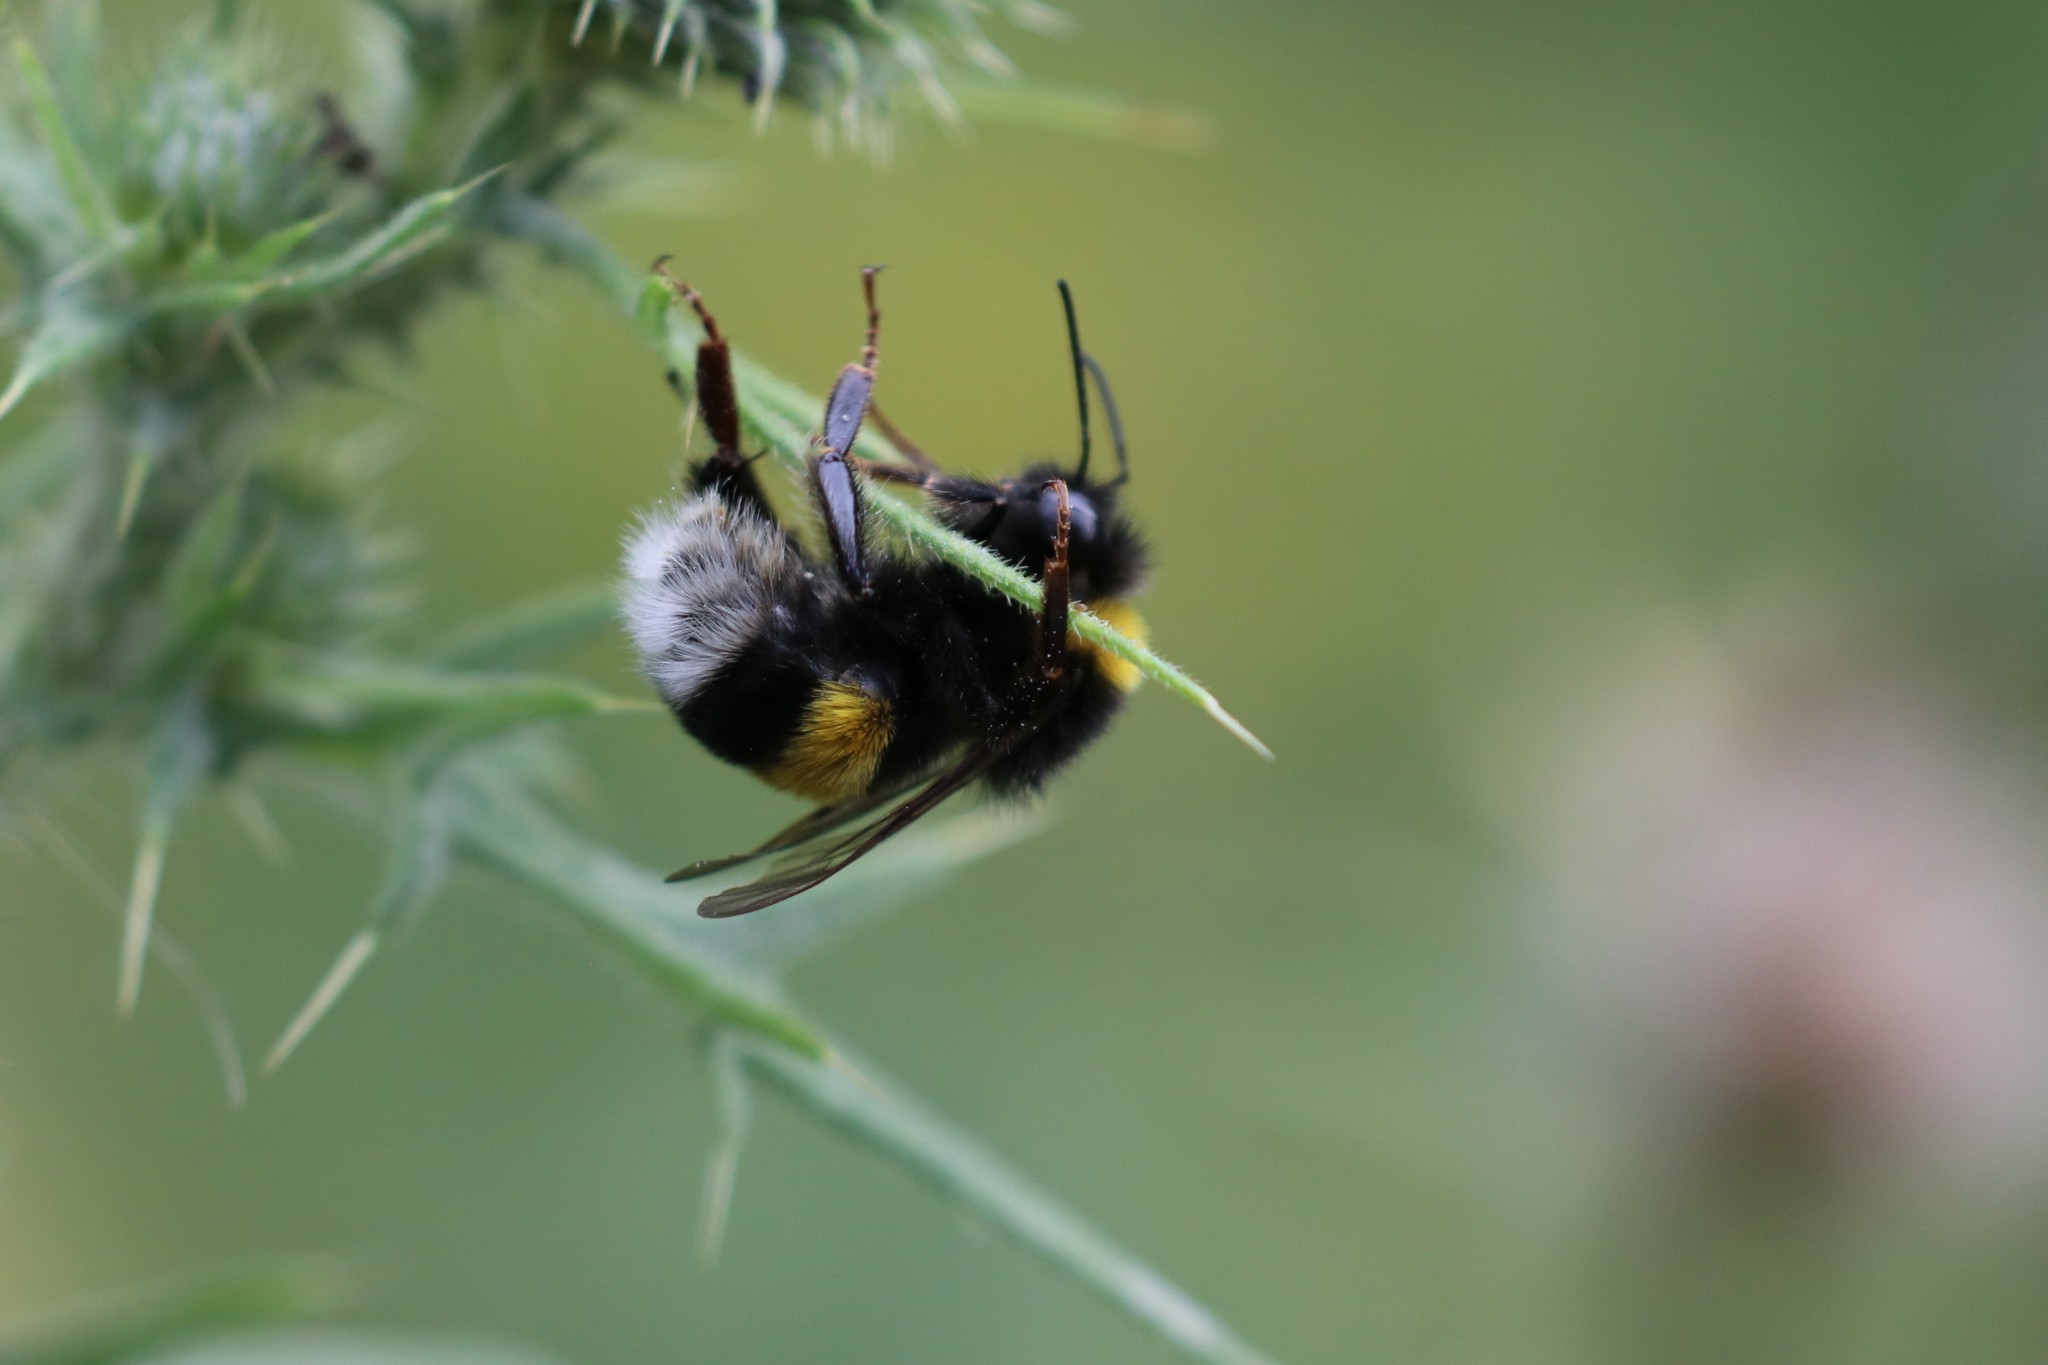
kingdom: Animalia
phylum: Arthropoda
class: Insecta
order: Hymenoptera
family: Apidae
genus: Bombus
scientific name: Bombus
